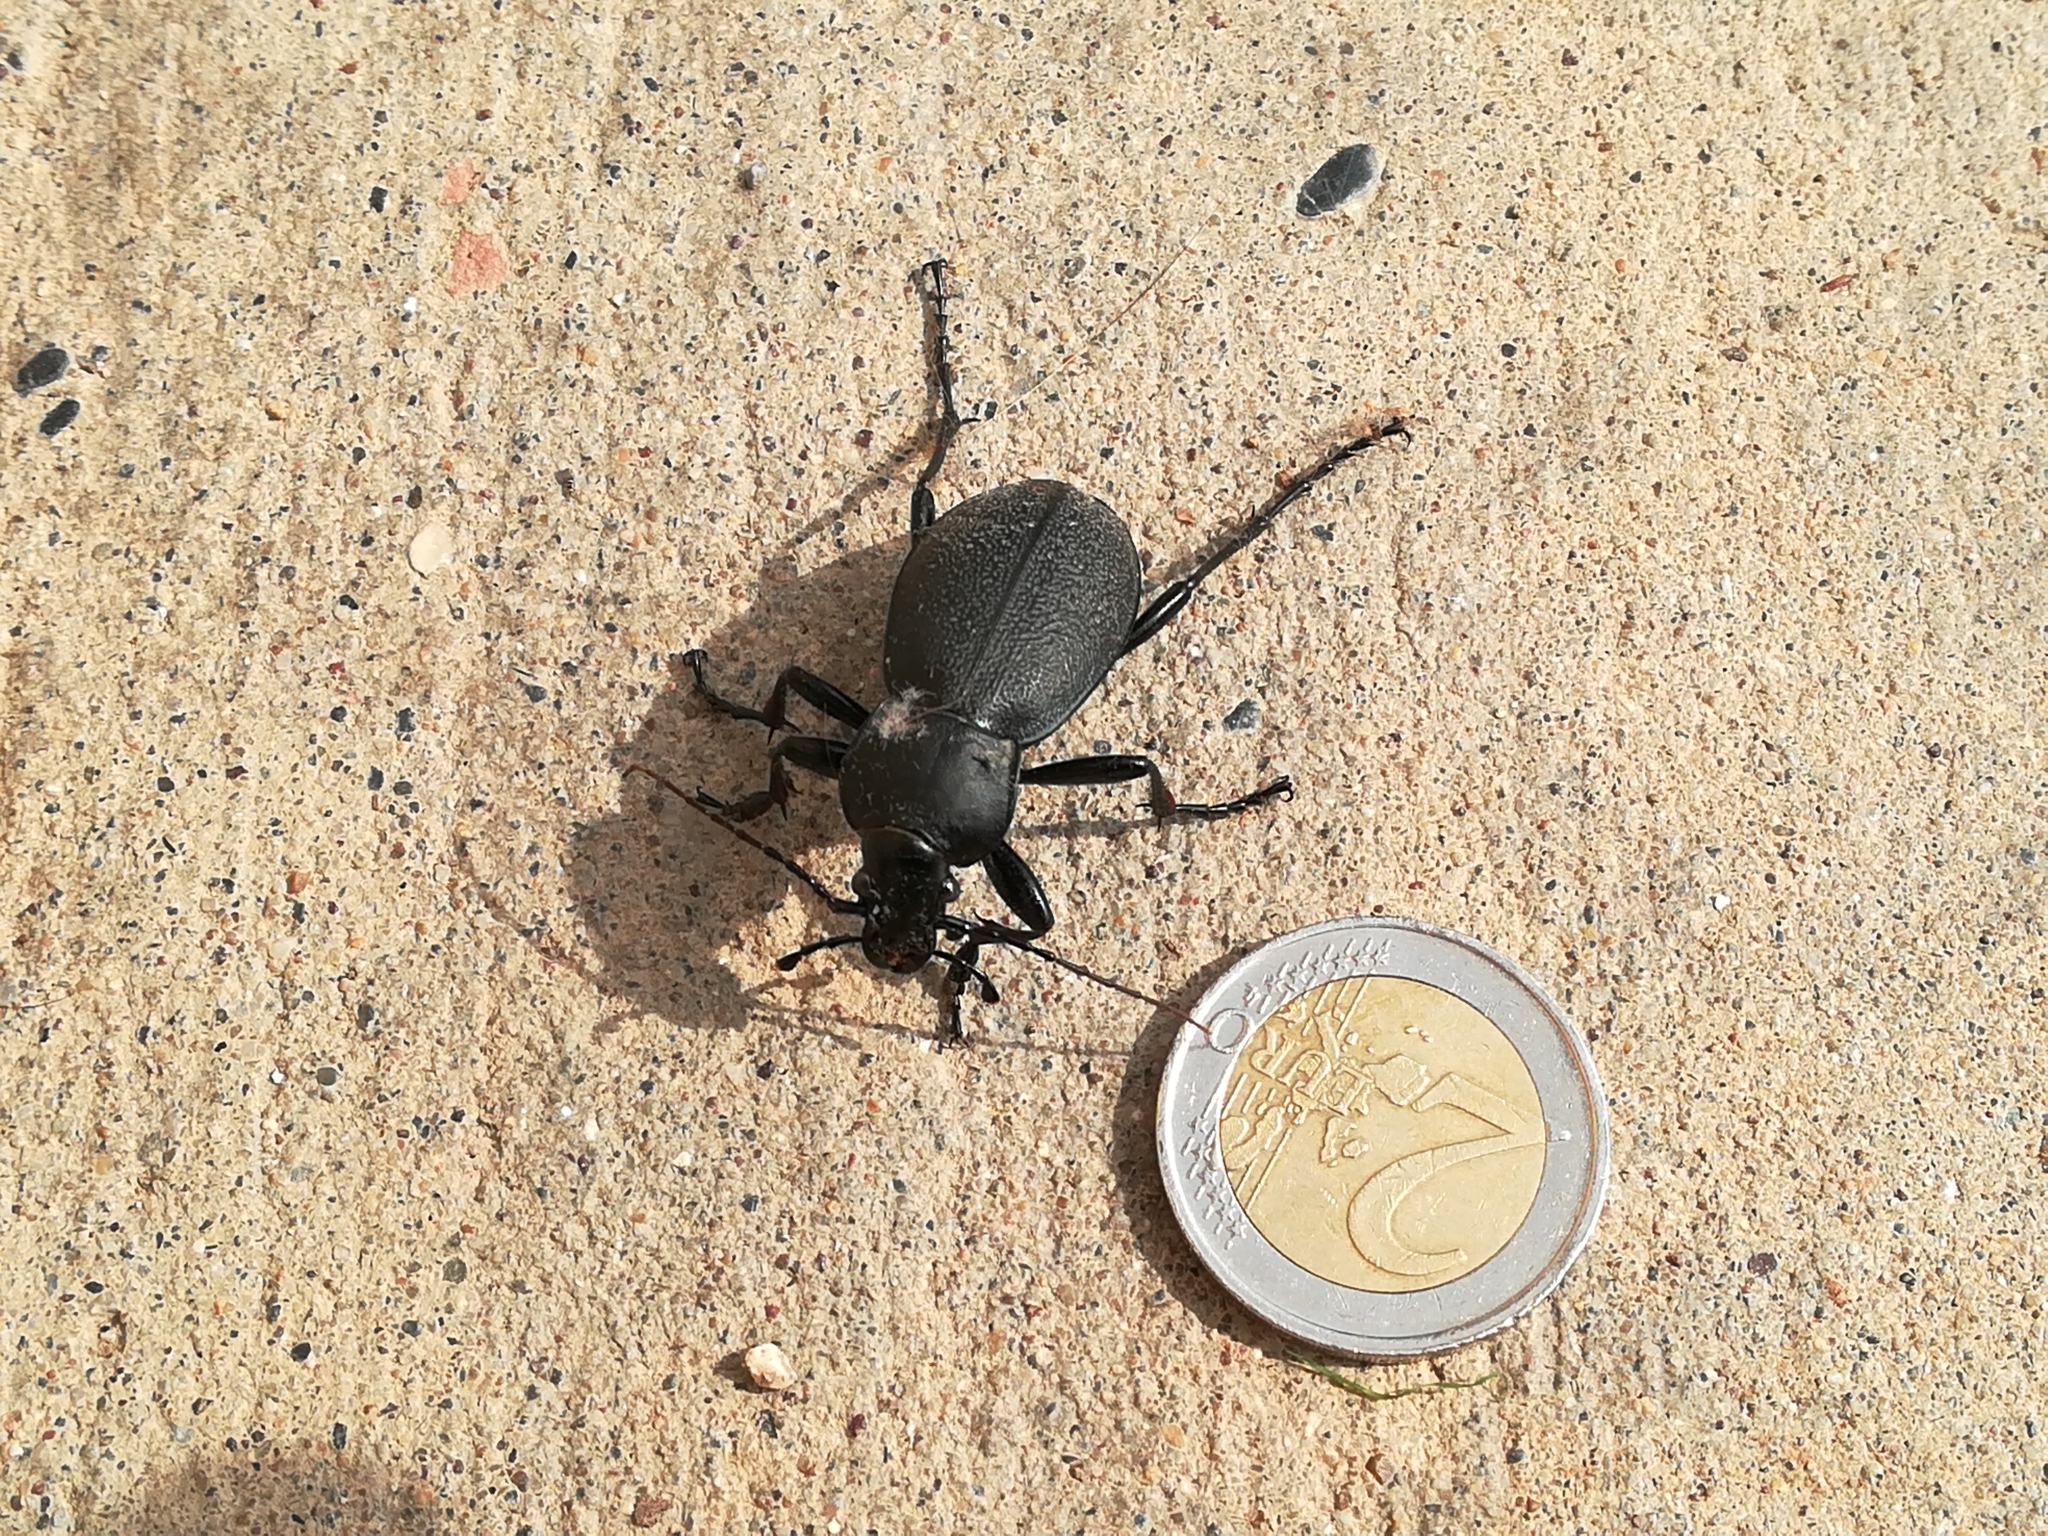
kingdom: Animalia
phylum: Arthropoda
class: Insecta
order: Coleoptera
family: Carabidae
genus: Carabus
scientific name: Carabus coriaceus
